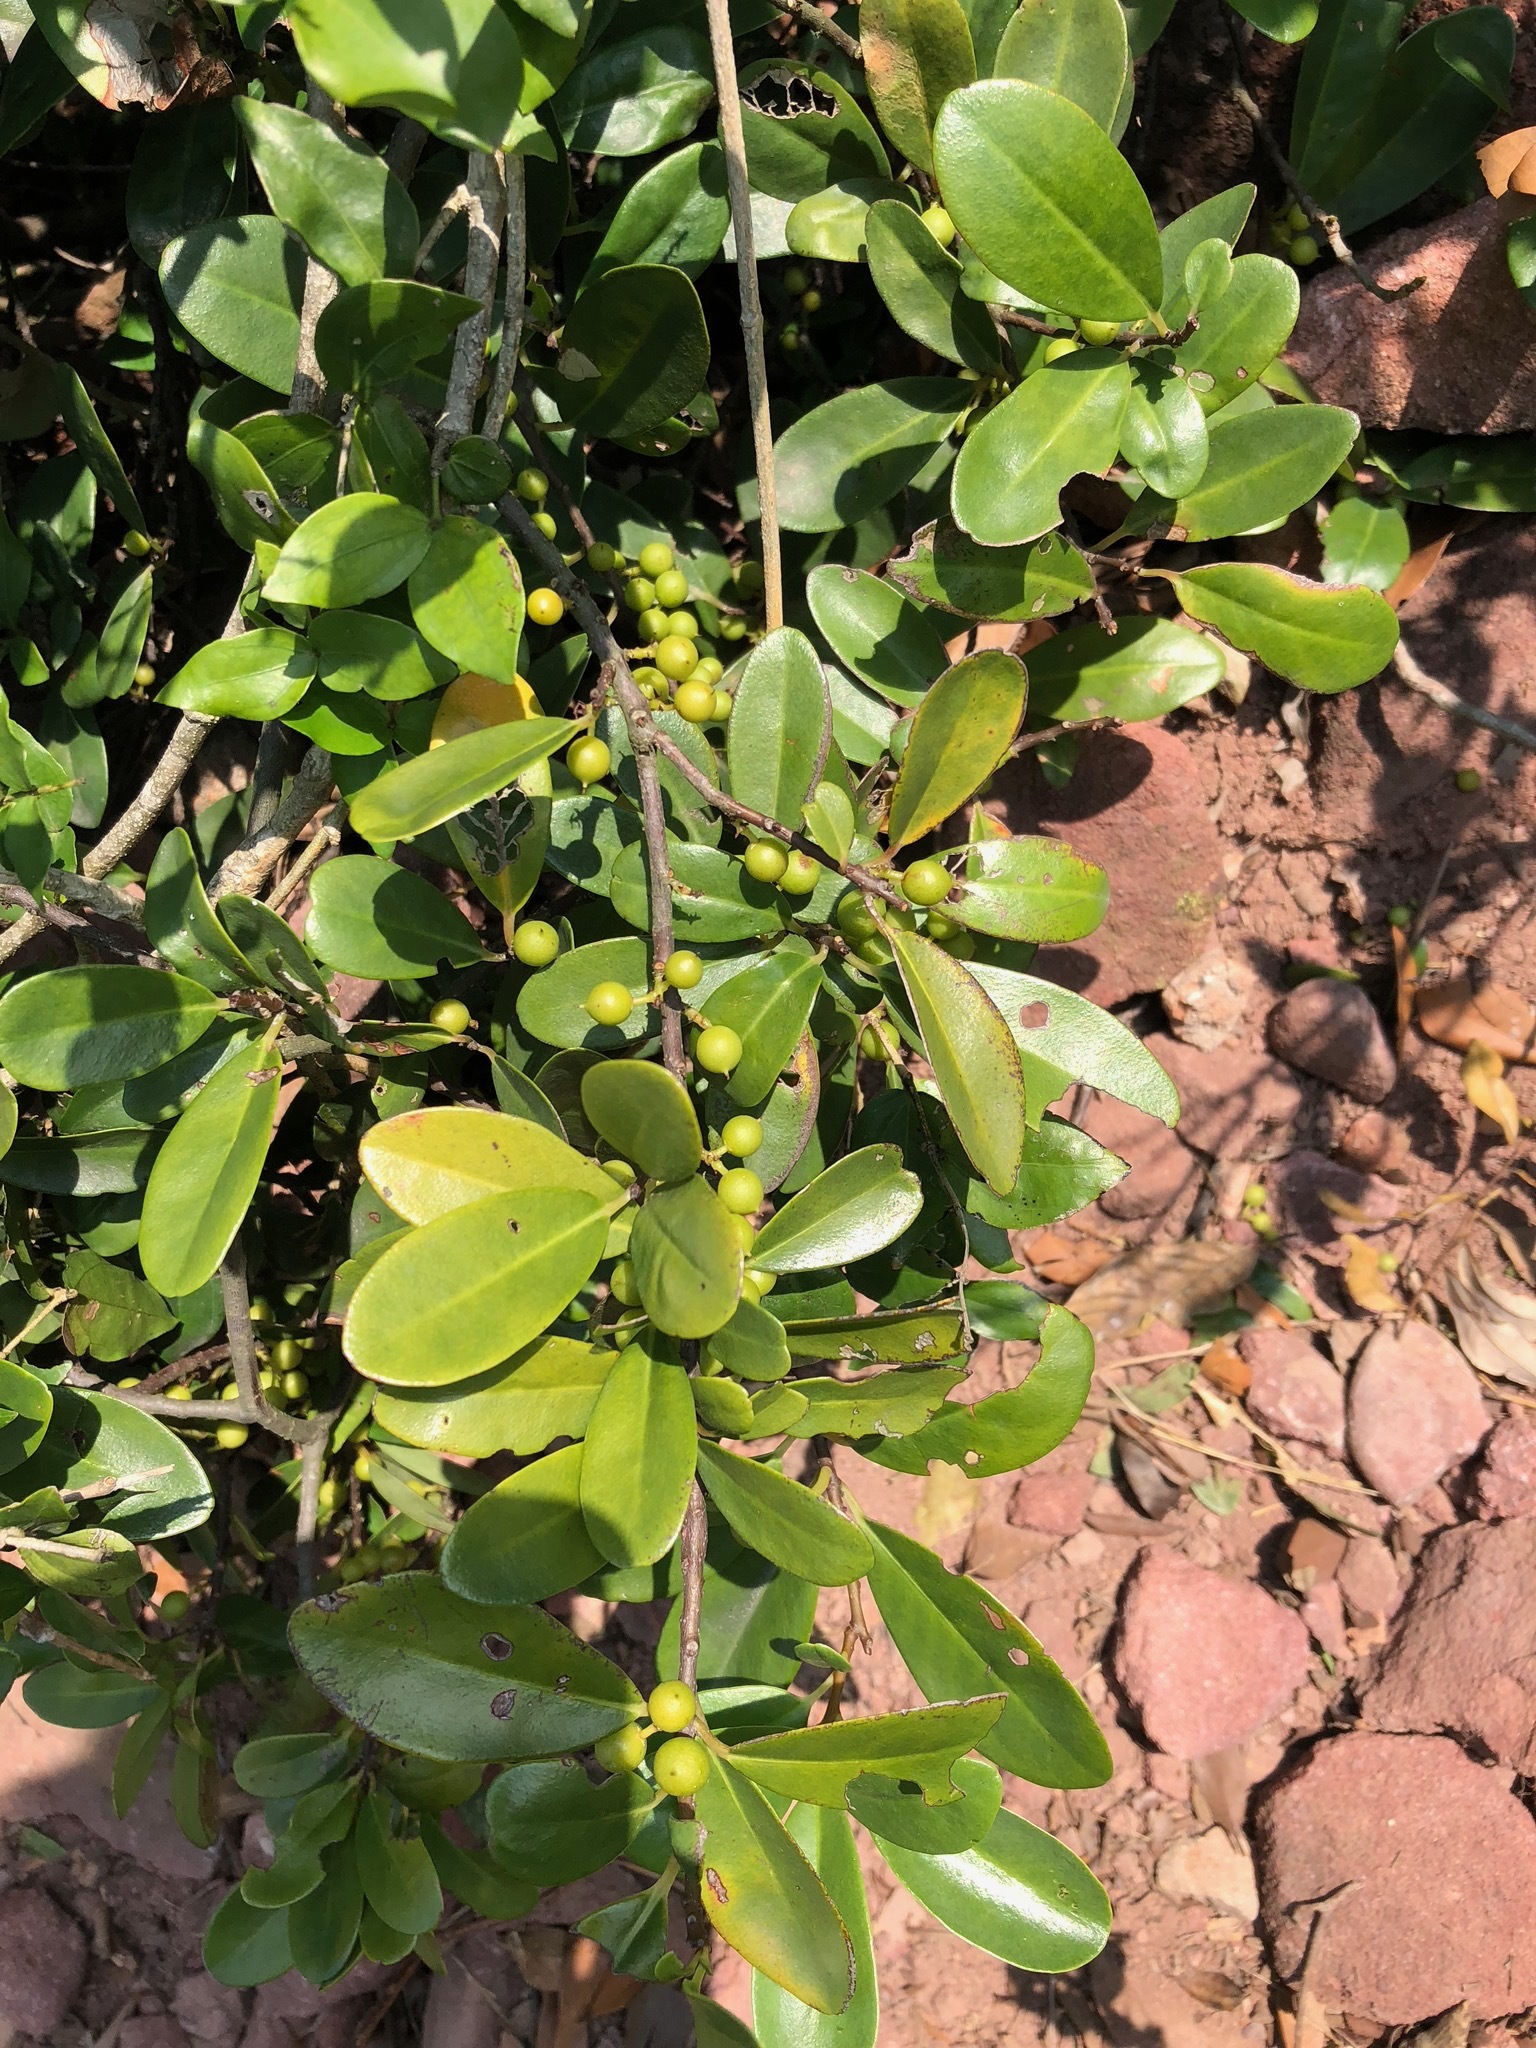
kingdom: Plantae
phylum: Tracheophyta
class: Magnoliopsida
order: Ericales
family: Primulaceae
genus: Embelia
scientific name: Embelia laeta
